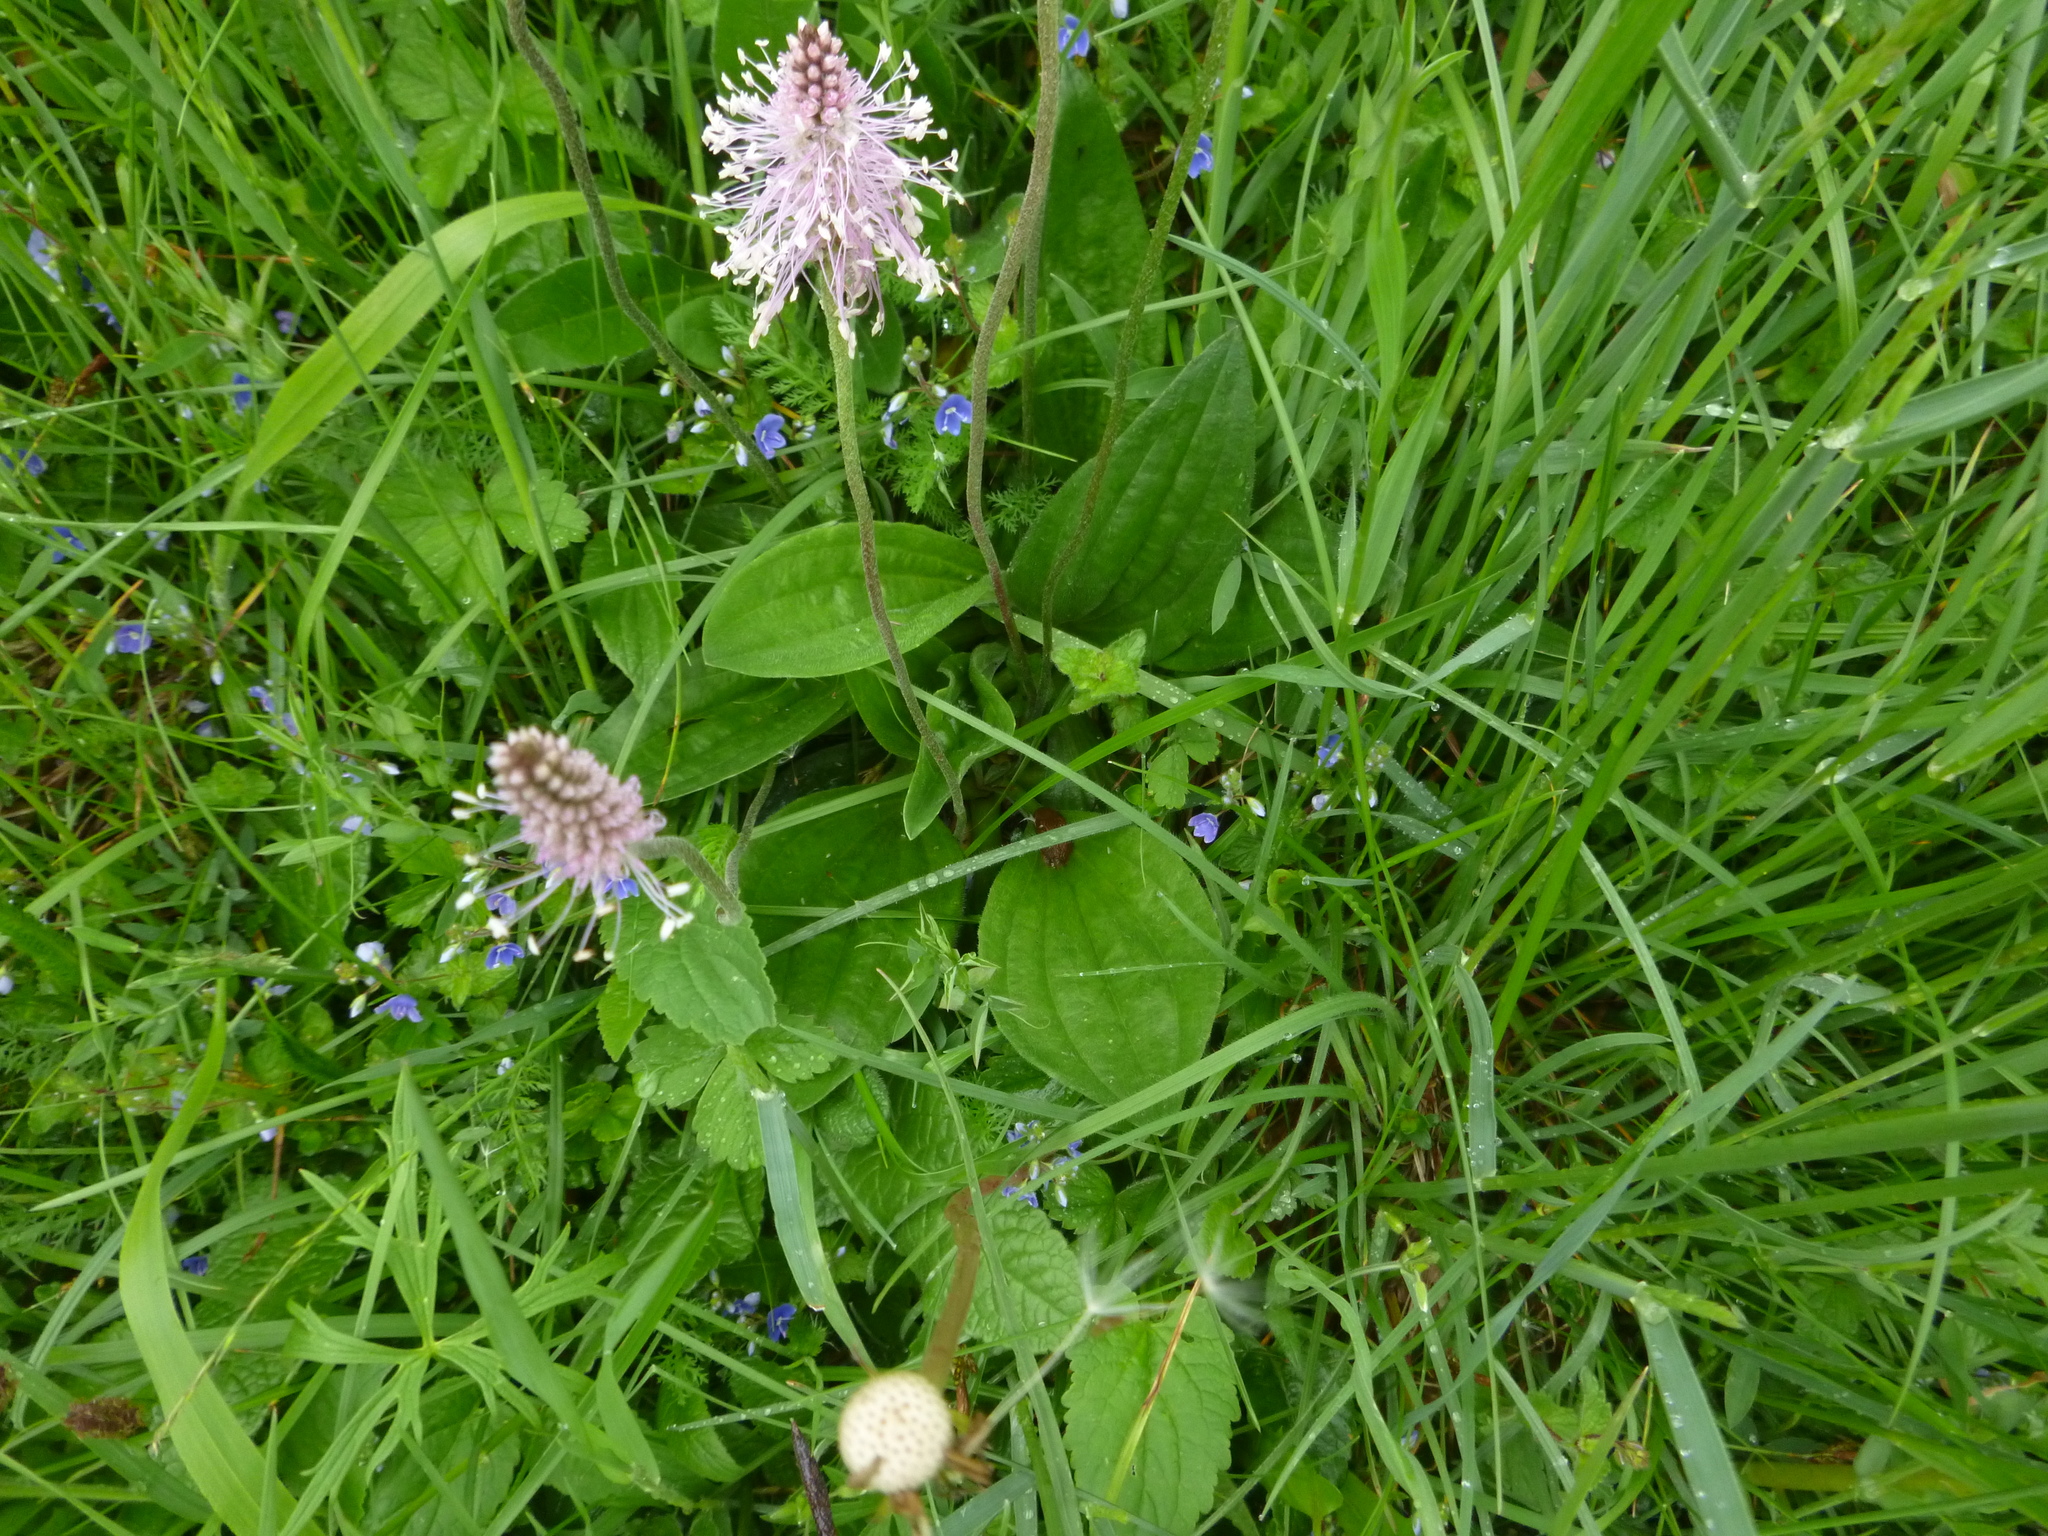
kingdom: Plantae
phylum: Tracheophyta
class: Magnoliopsida
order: Lamiales
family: Plantaginaceae
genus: Plantago
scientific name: Plantago media
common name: Hoary plantain
